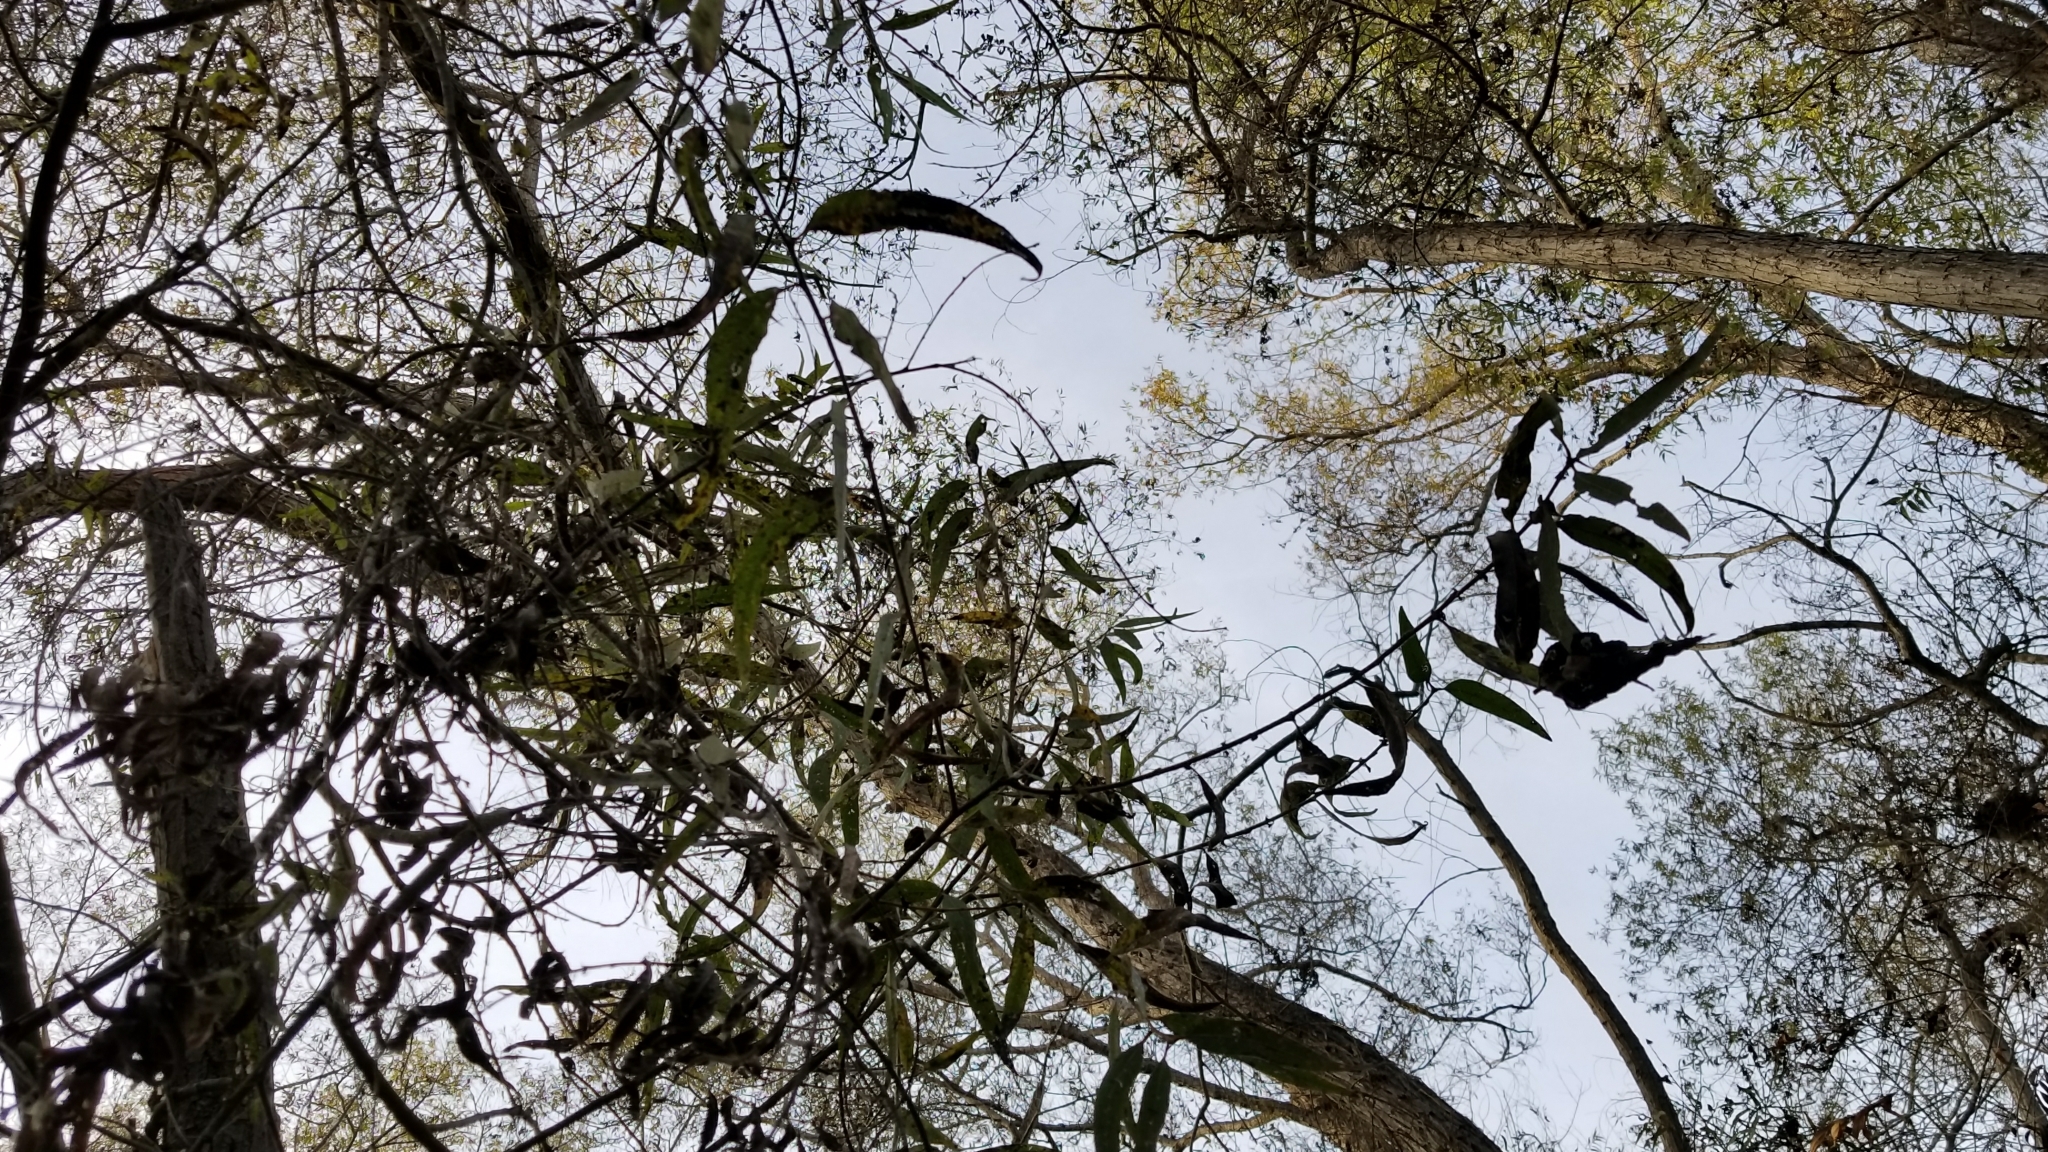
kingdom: Plantae
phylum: Tracheophyta
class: Magnoliopsida
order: Malpighiales
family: Salicaceae
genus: Salix
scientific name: Salix gooddingii
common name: Goodding's willow
